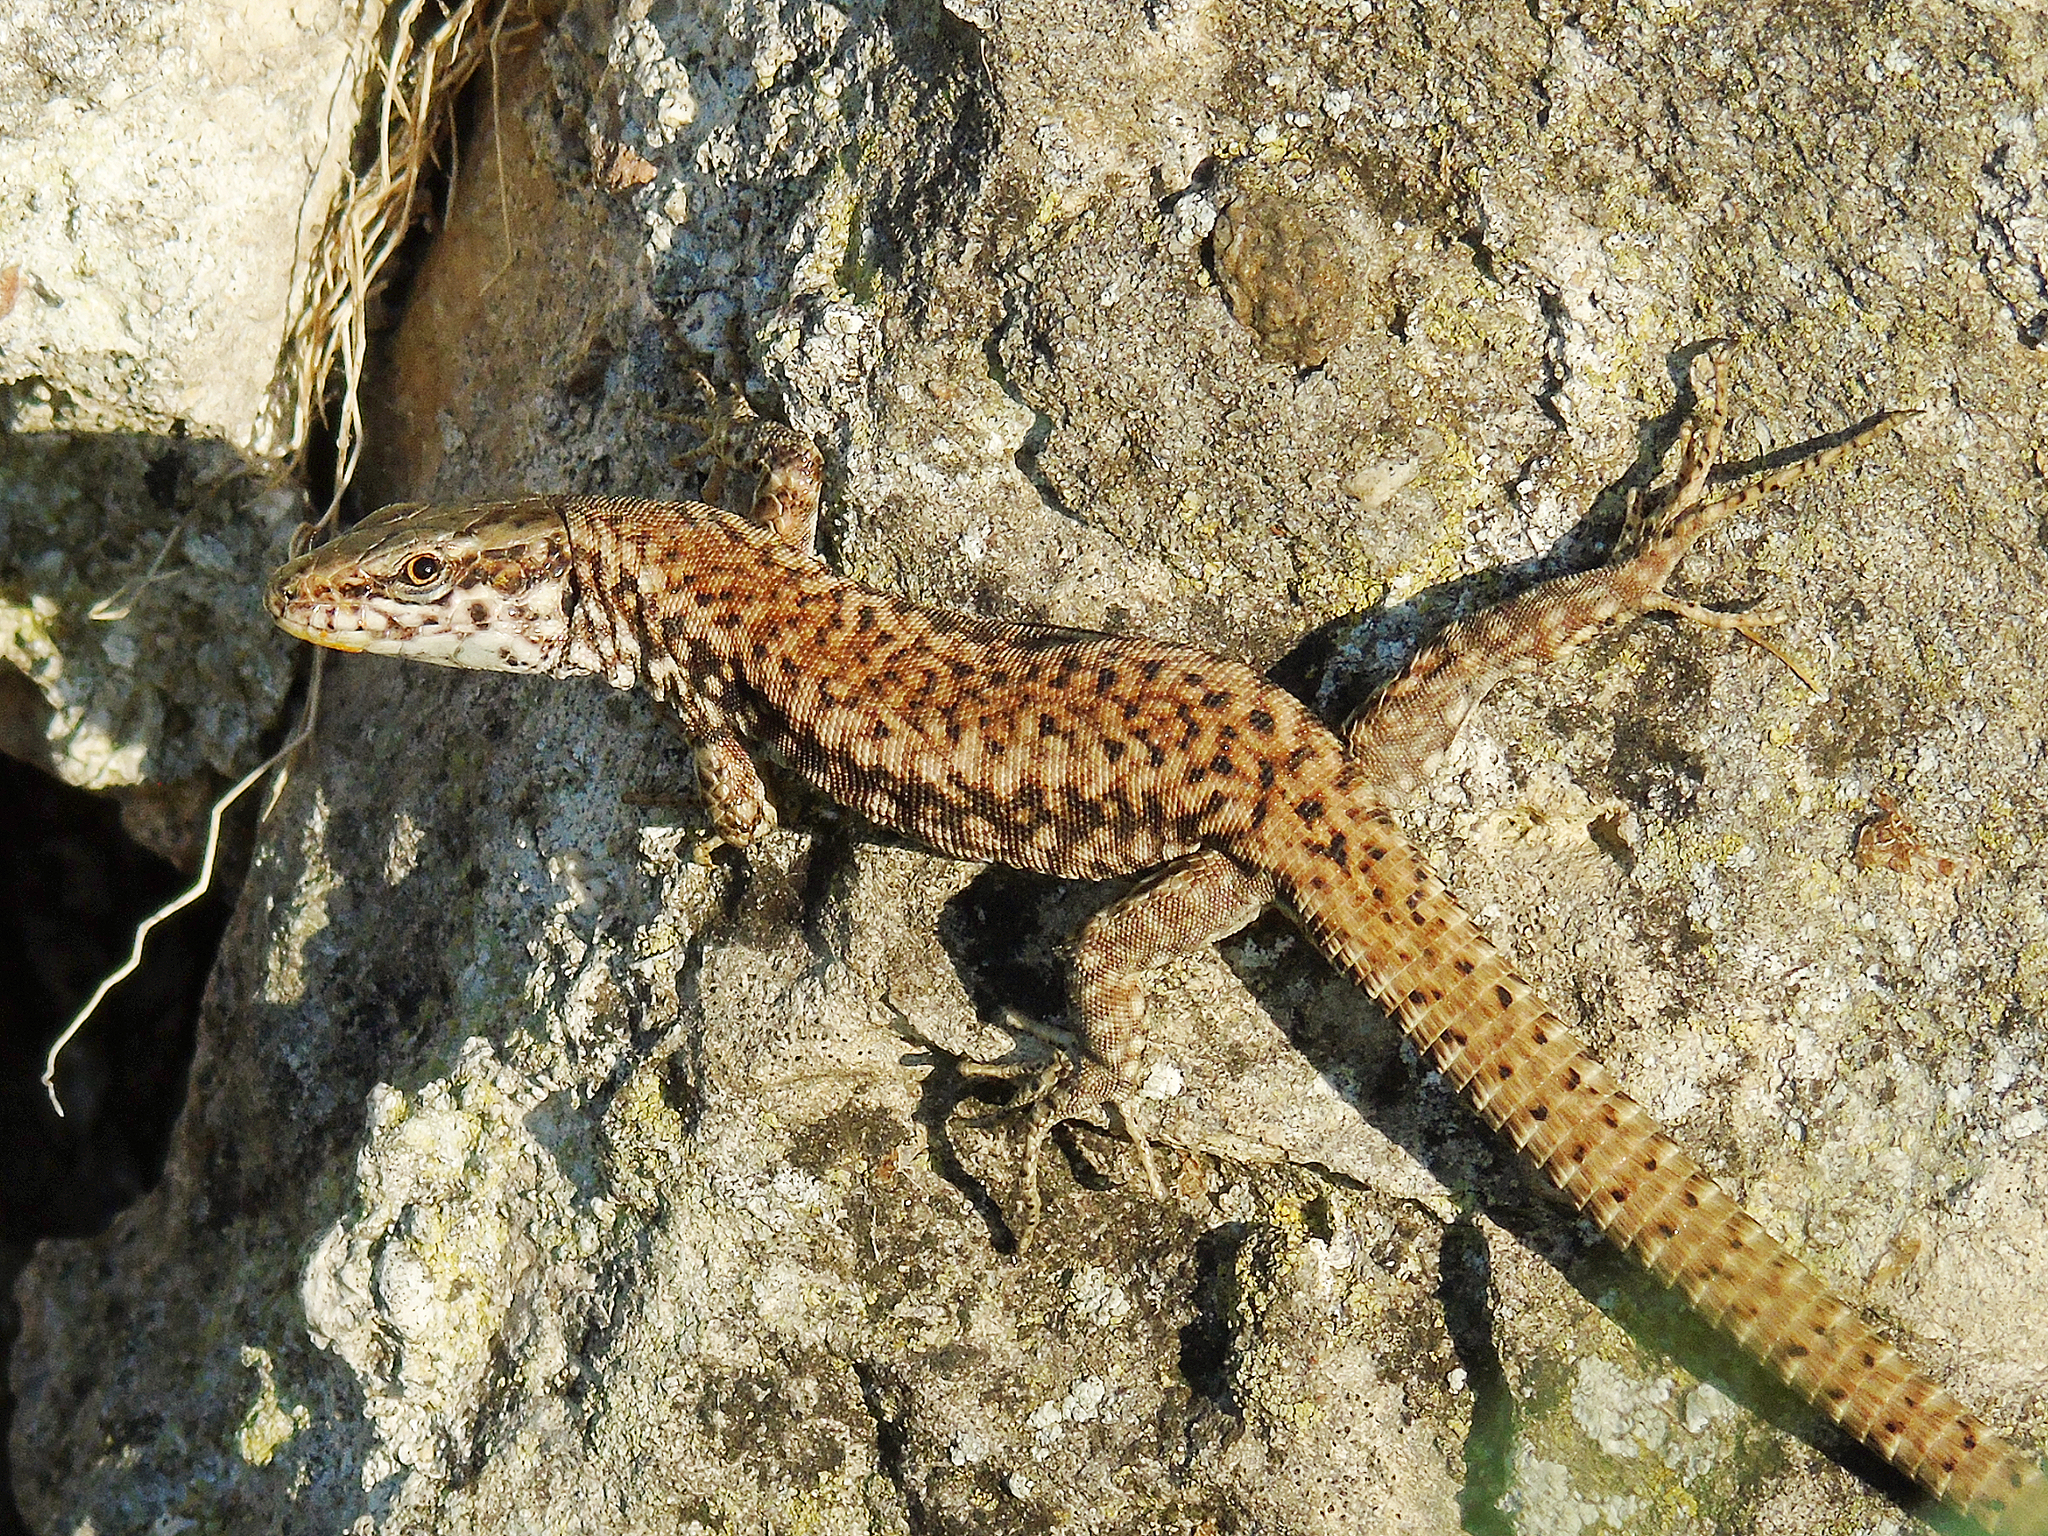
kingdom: Animalia
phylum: Chordata
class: Squamata
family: Lacertidae
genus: Podarcis
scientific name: Podarcis muralis
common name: Common wall lizard
